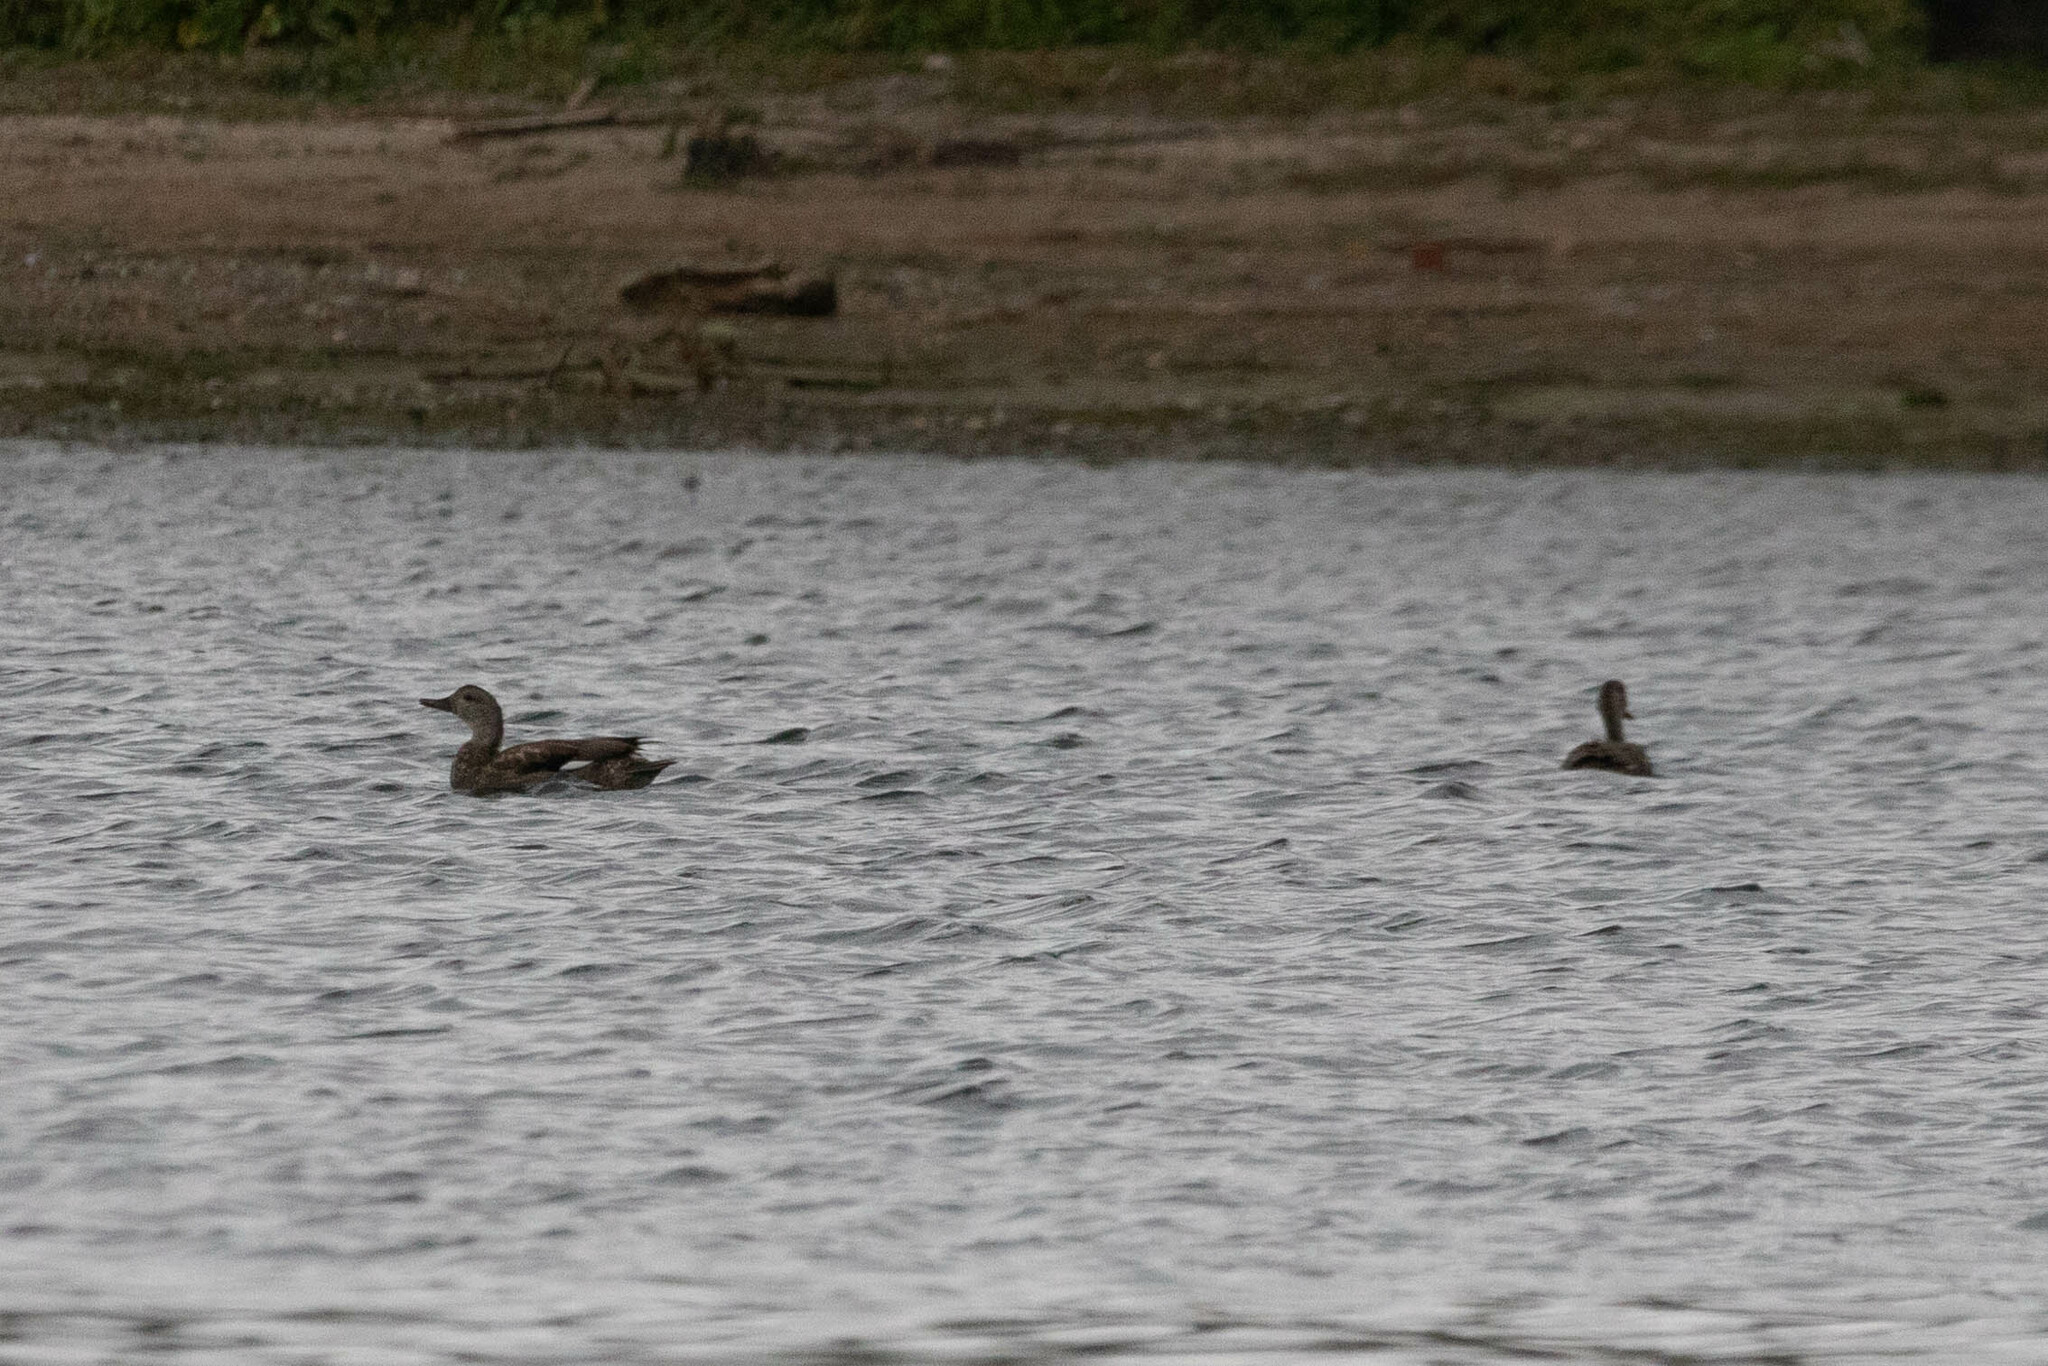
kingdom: Animalia
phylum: Chordata
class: Aves
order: Anseriformes
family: Anatidae
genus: Mareca
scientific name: Mareca strepera
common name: Gadwall
